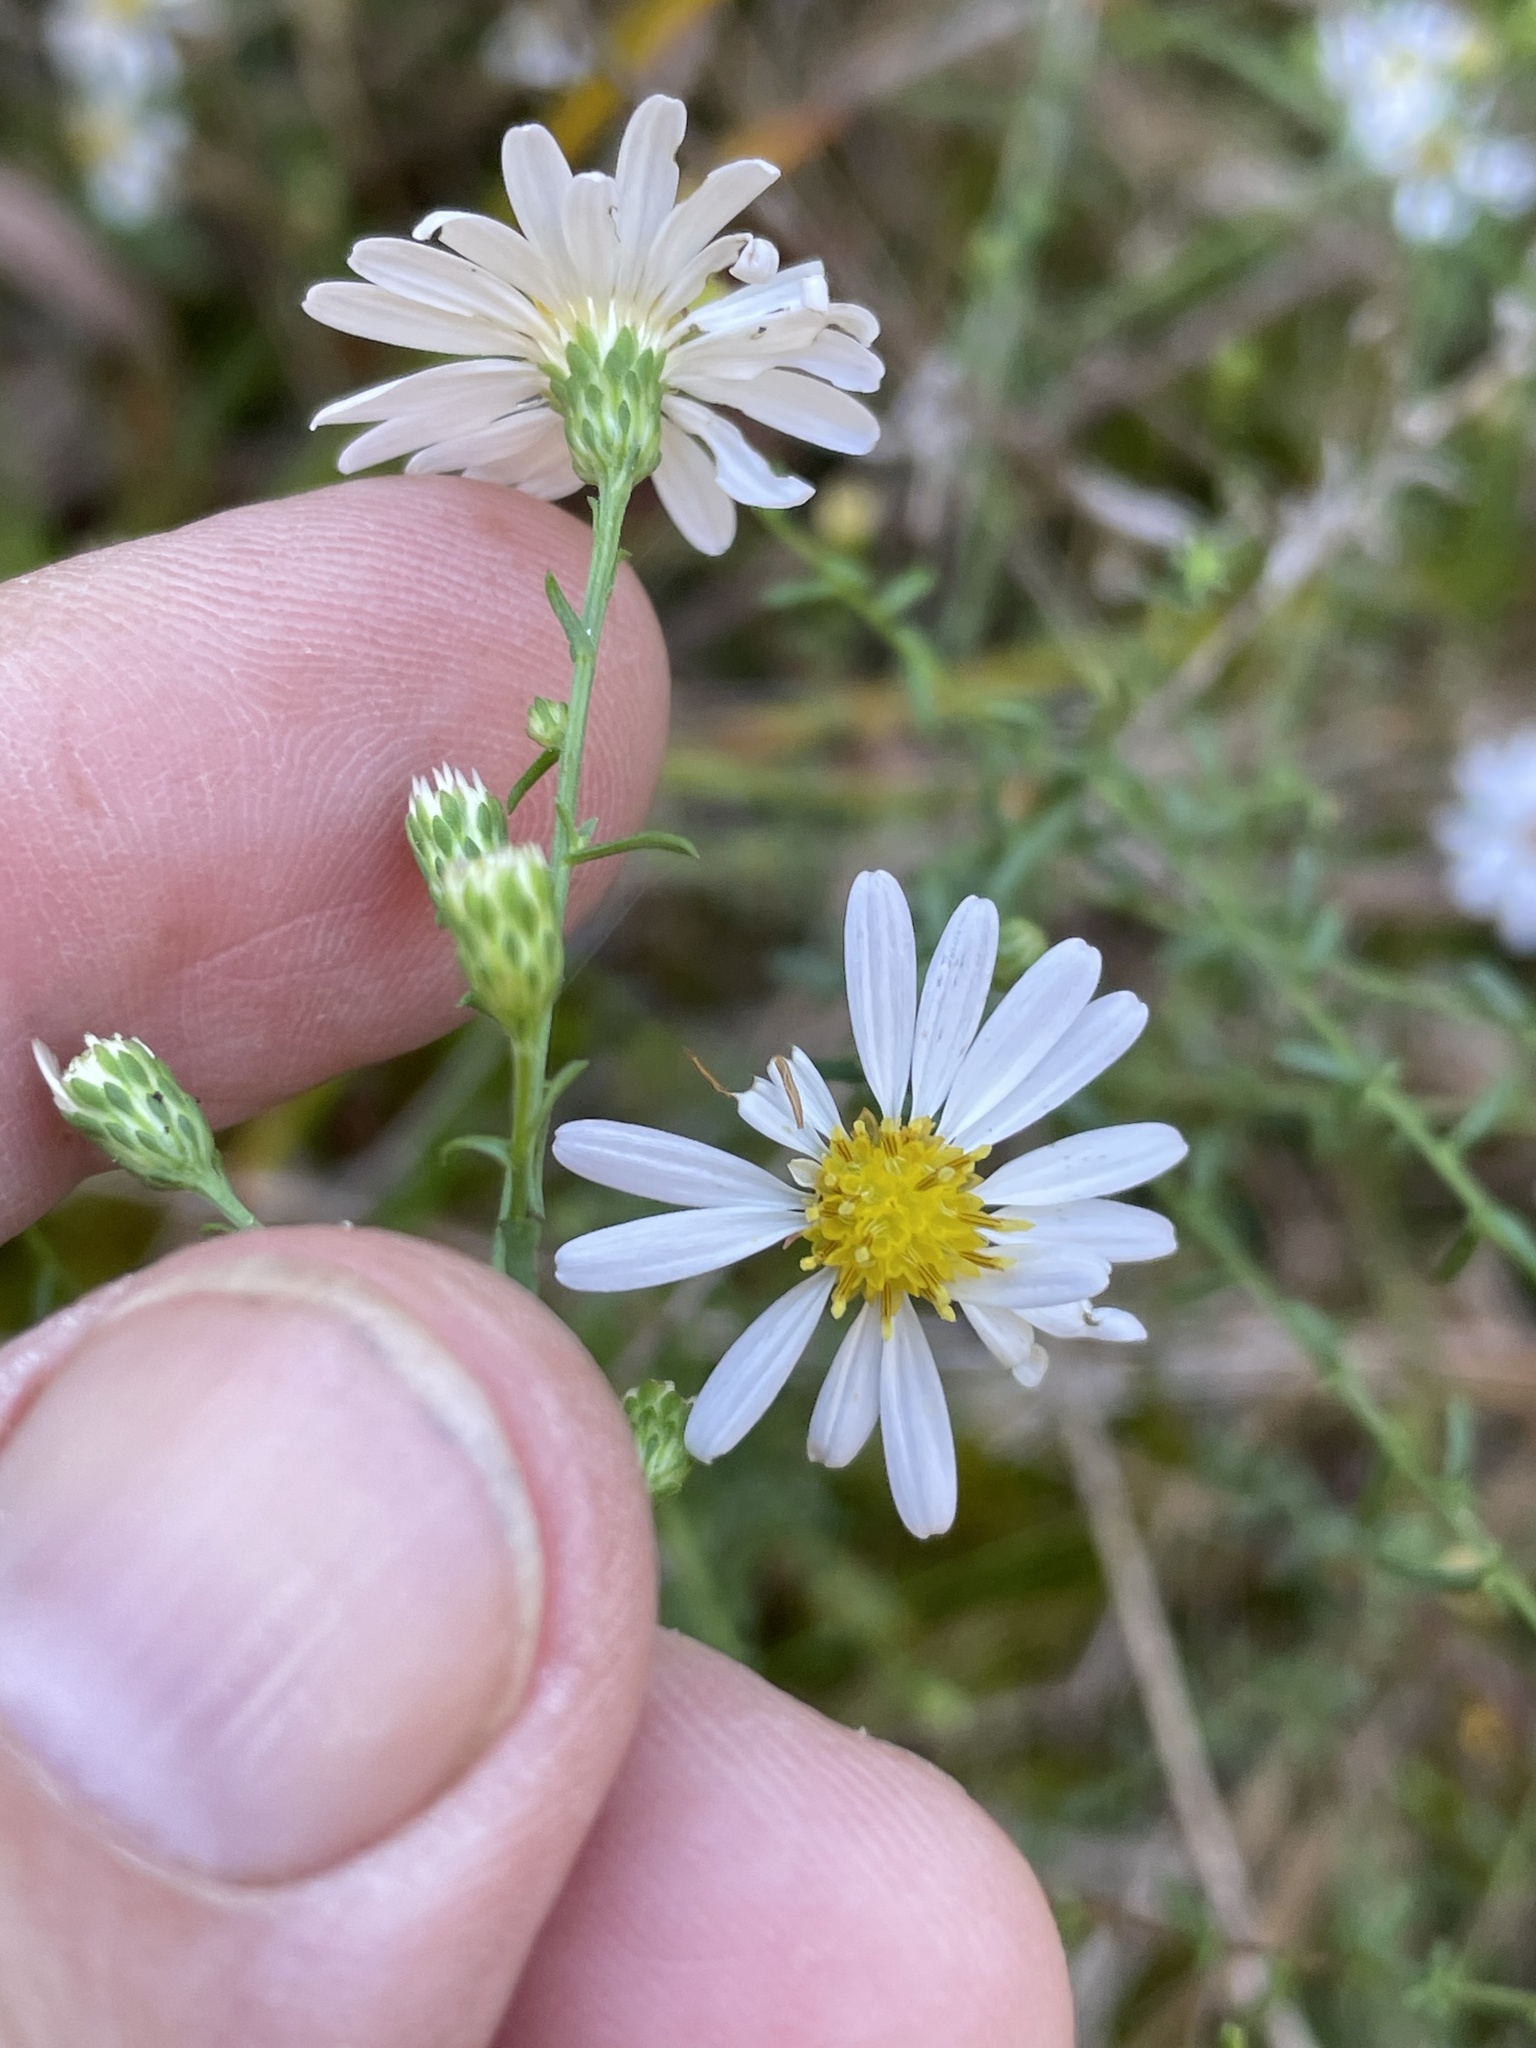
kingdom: Plantae
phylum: Tracheophyta
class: Magnoliopsida
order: Asterales
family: Asteraceae
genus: Symphyotrichum
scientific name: Symphyotrichum dumosum
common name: Bushy aster
